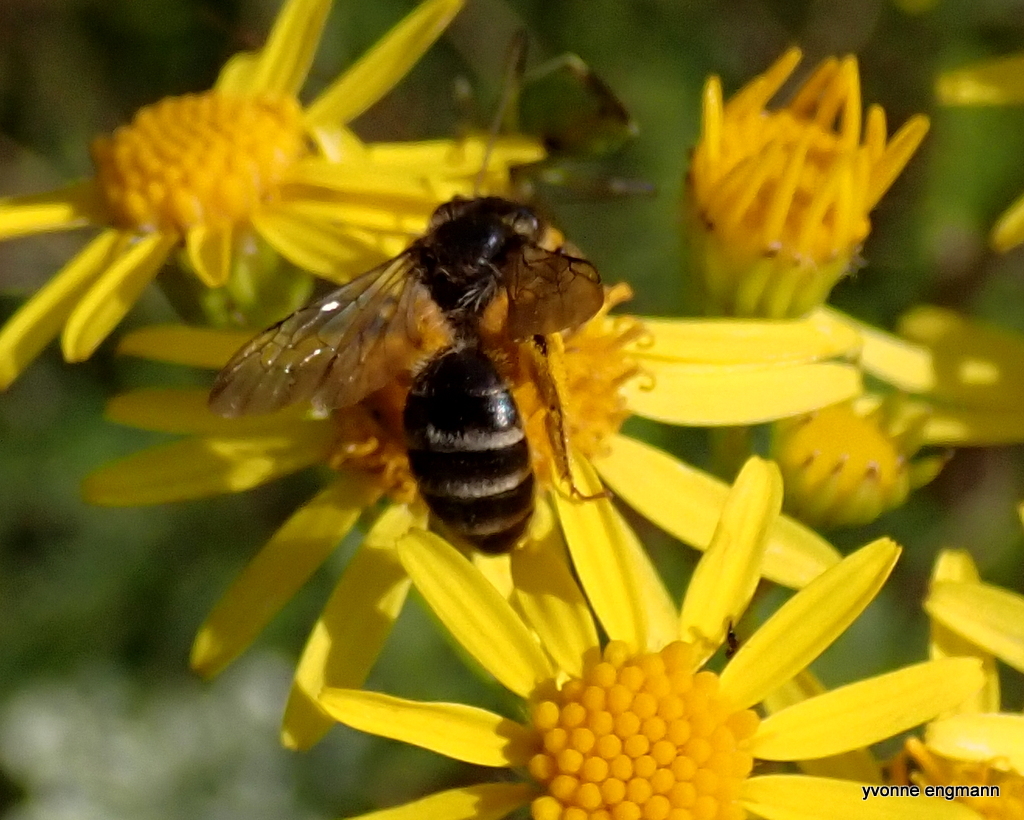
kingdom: Animalia
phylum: Arthropoda
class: Insecta
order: Hymenoptera
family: Andrenidae
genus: Andrena
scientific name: Andrena denticulata
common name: Grey-banded mining bee
